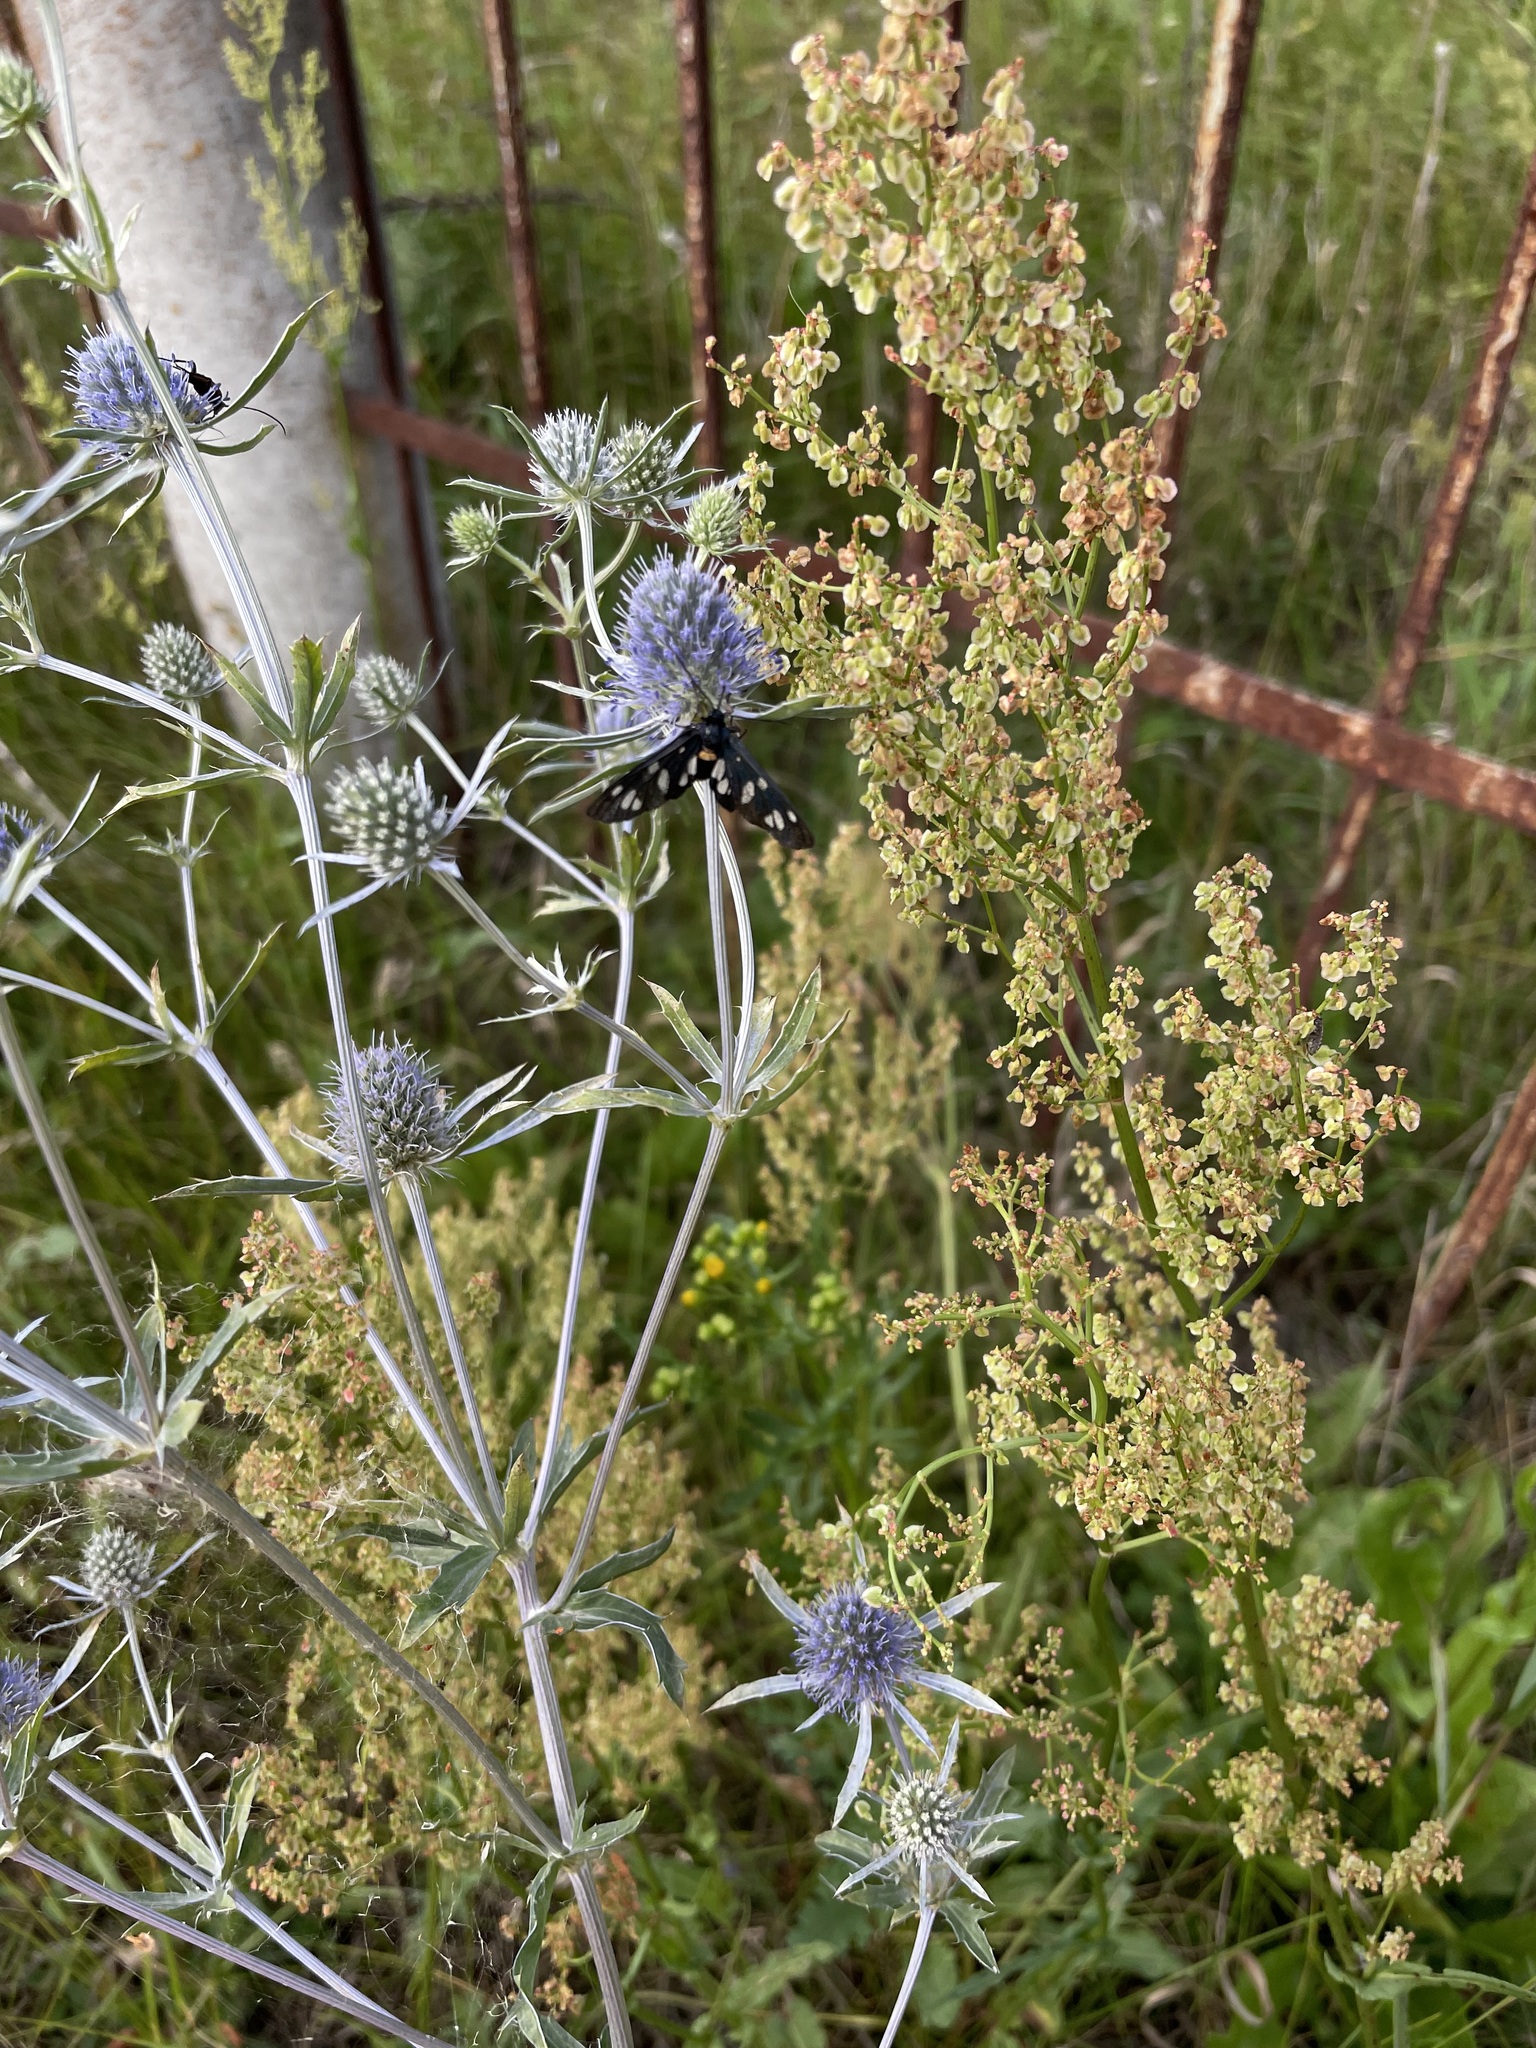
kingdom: Plantae
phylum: Tracheophyta
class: Magnoliopsida
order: Apiales
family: Apiaceae
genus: Eryngium
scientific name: Eryngium planum
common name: Blue eryngo
